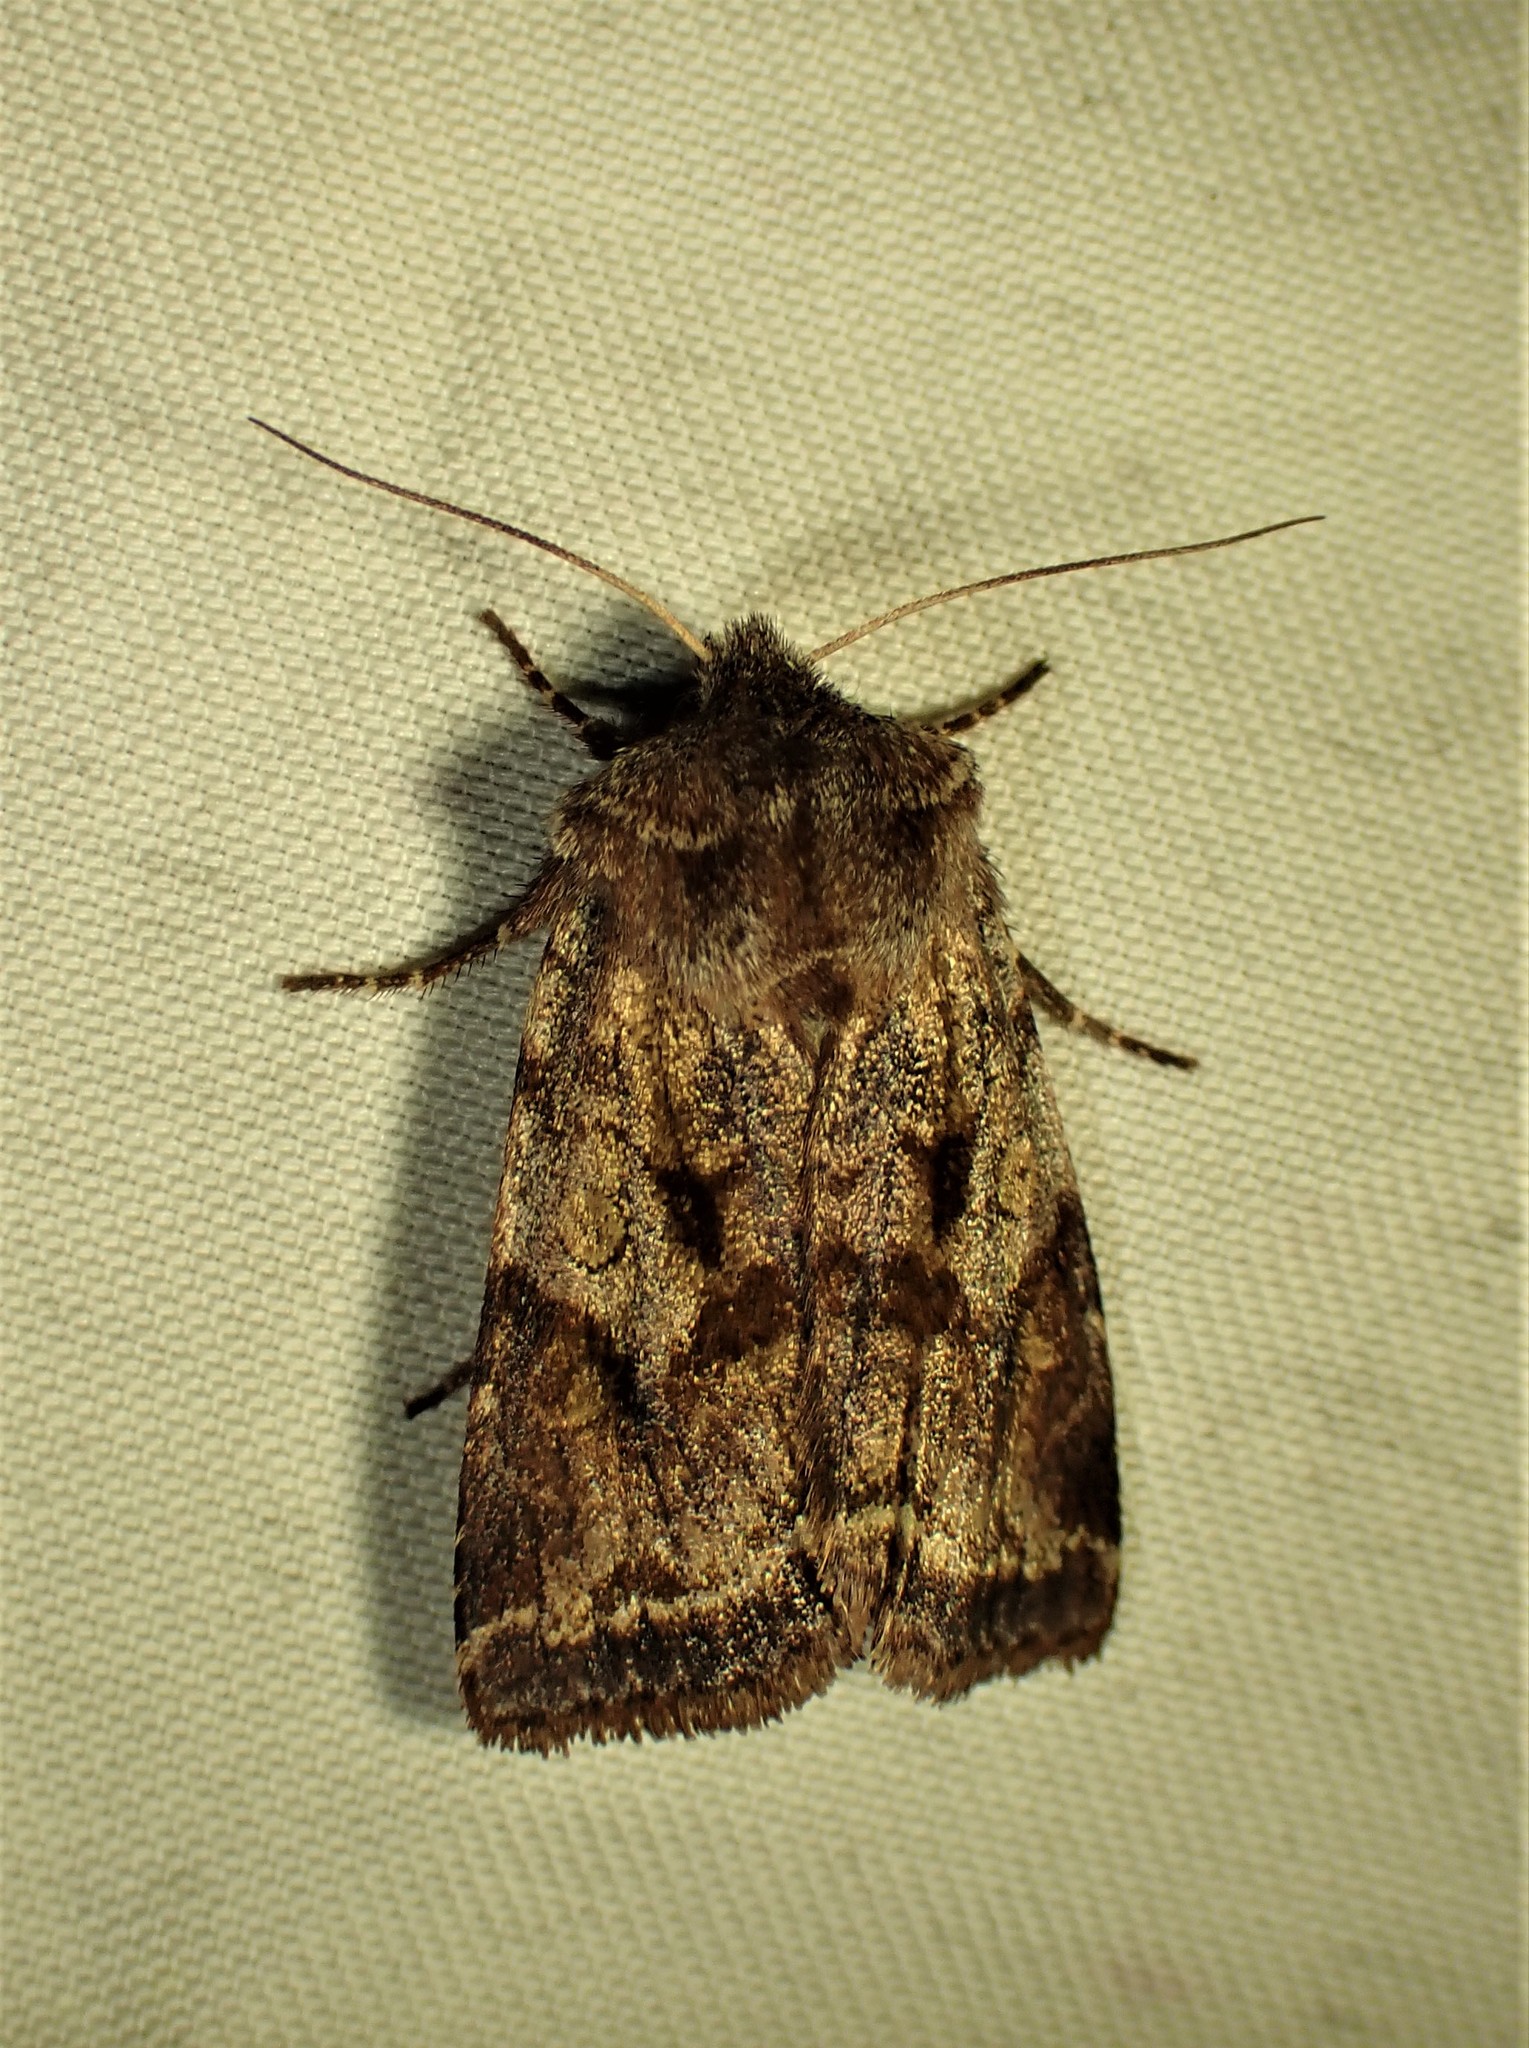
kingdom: Animalia
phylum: Arthropoda
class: Insecta
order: Lepidoptera
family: Noctuidae
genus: Cerastis
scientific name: Cerastis salicarum
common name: Willow dart
